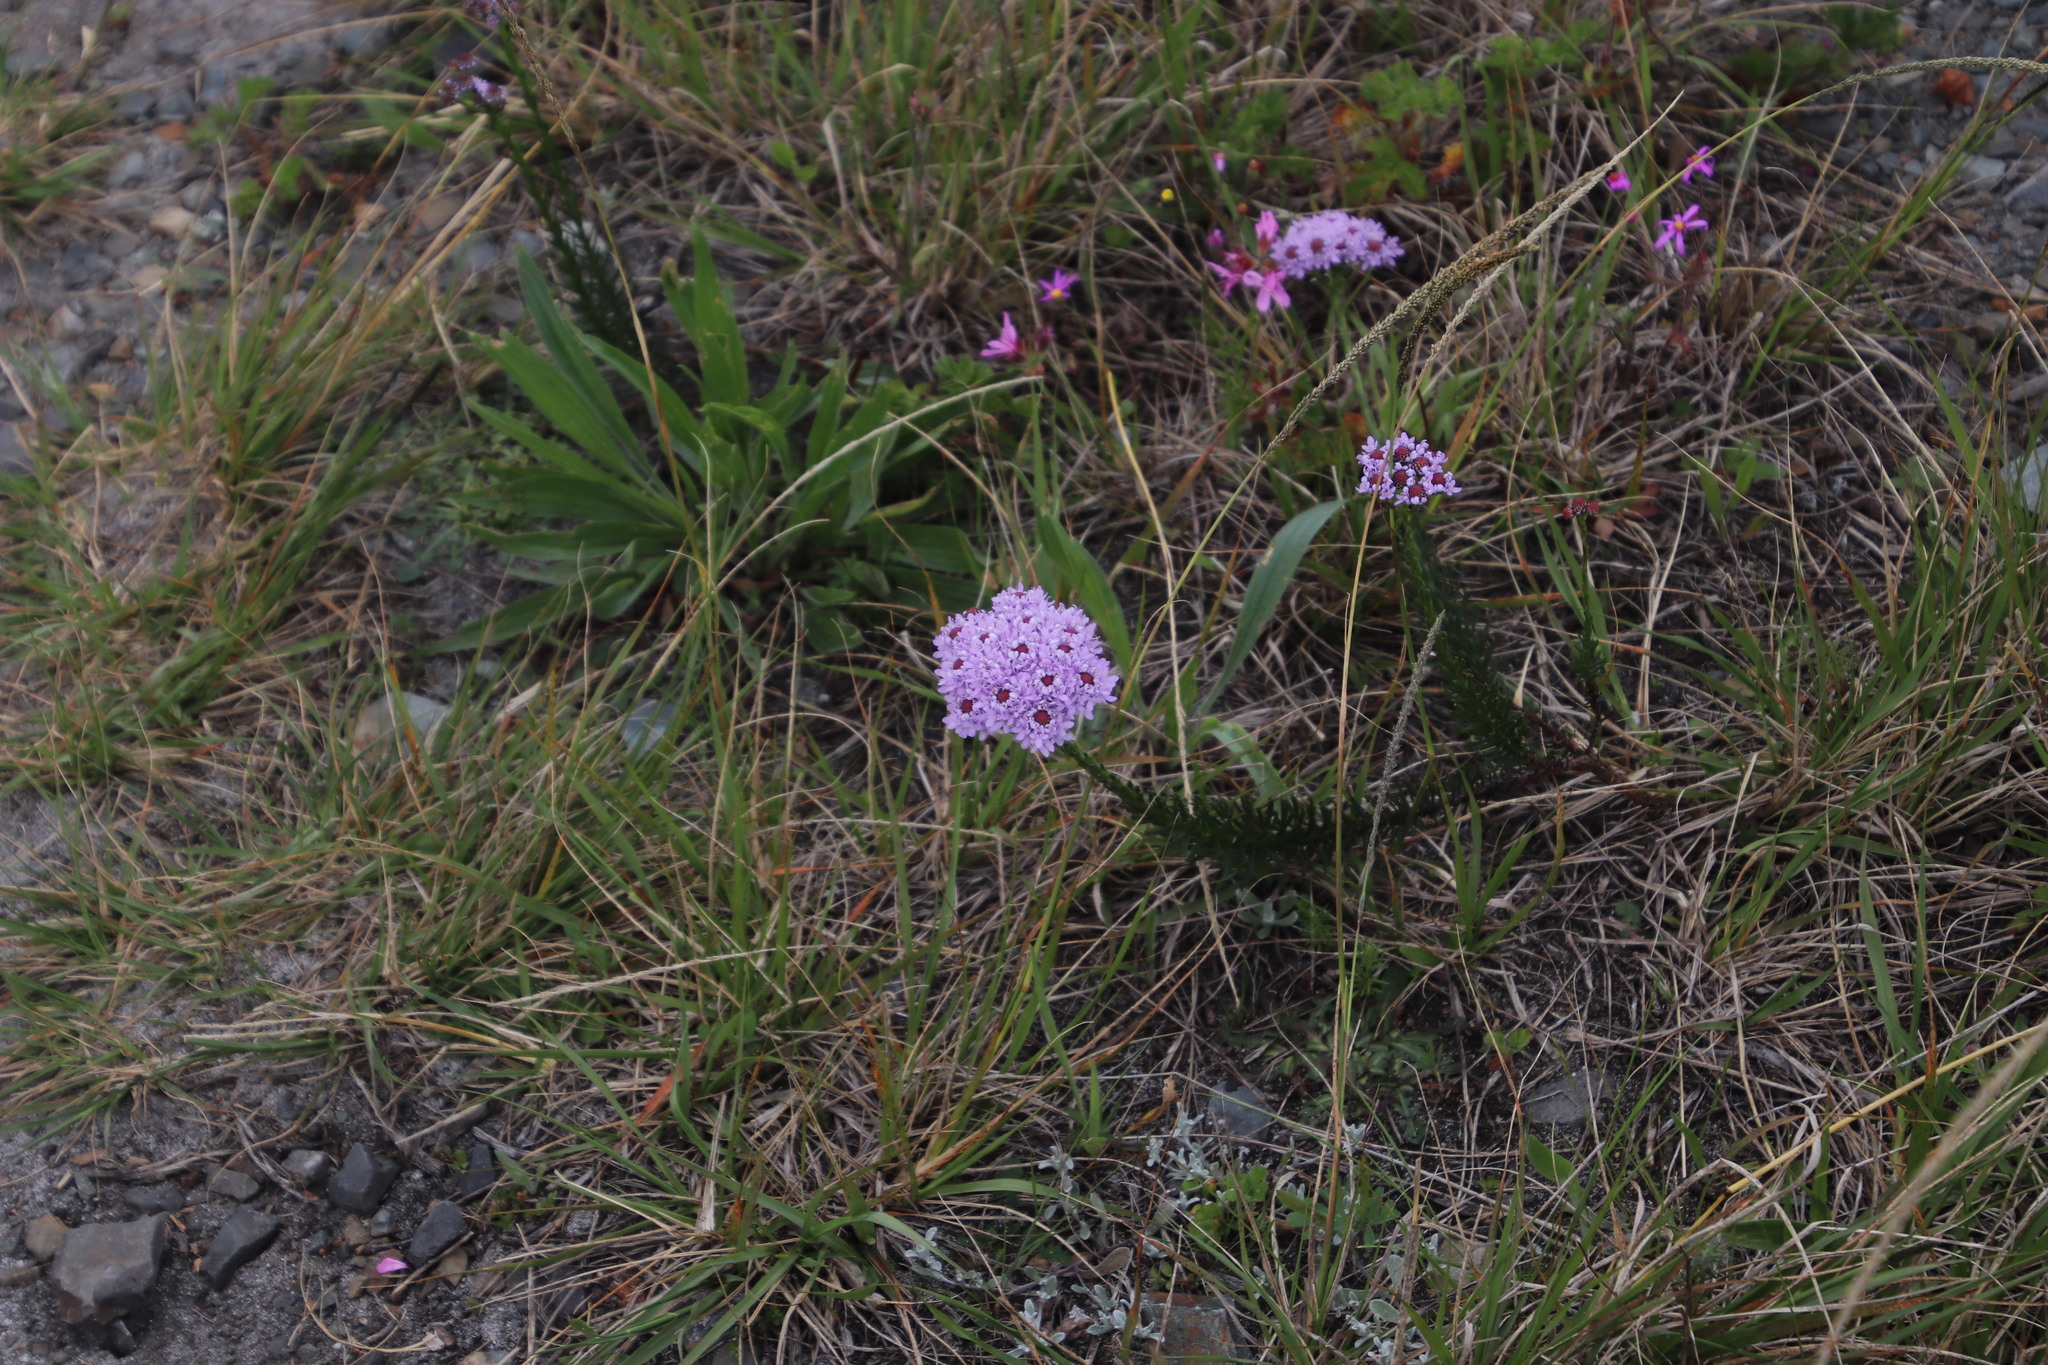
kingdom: Plantae
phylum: Tracheophyta
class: Magnoliopsida
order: Lamiales
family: Scrophulariaceae
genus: Pseudoselago
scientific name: Pseudoselago spuria
